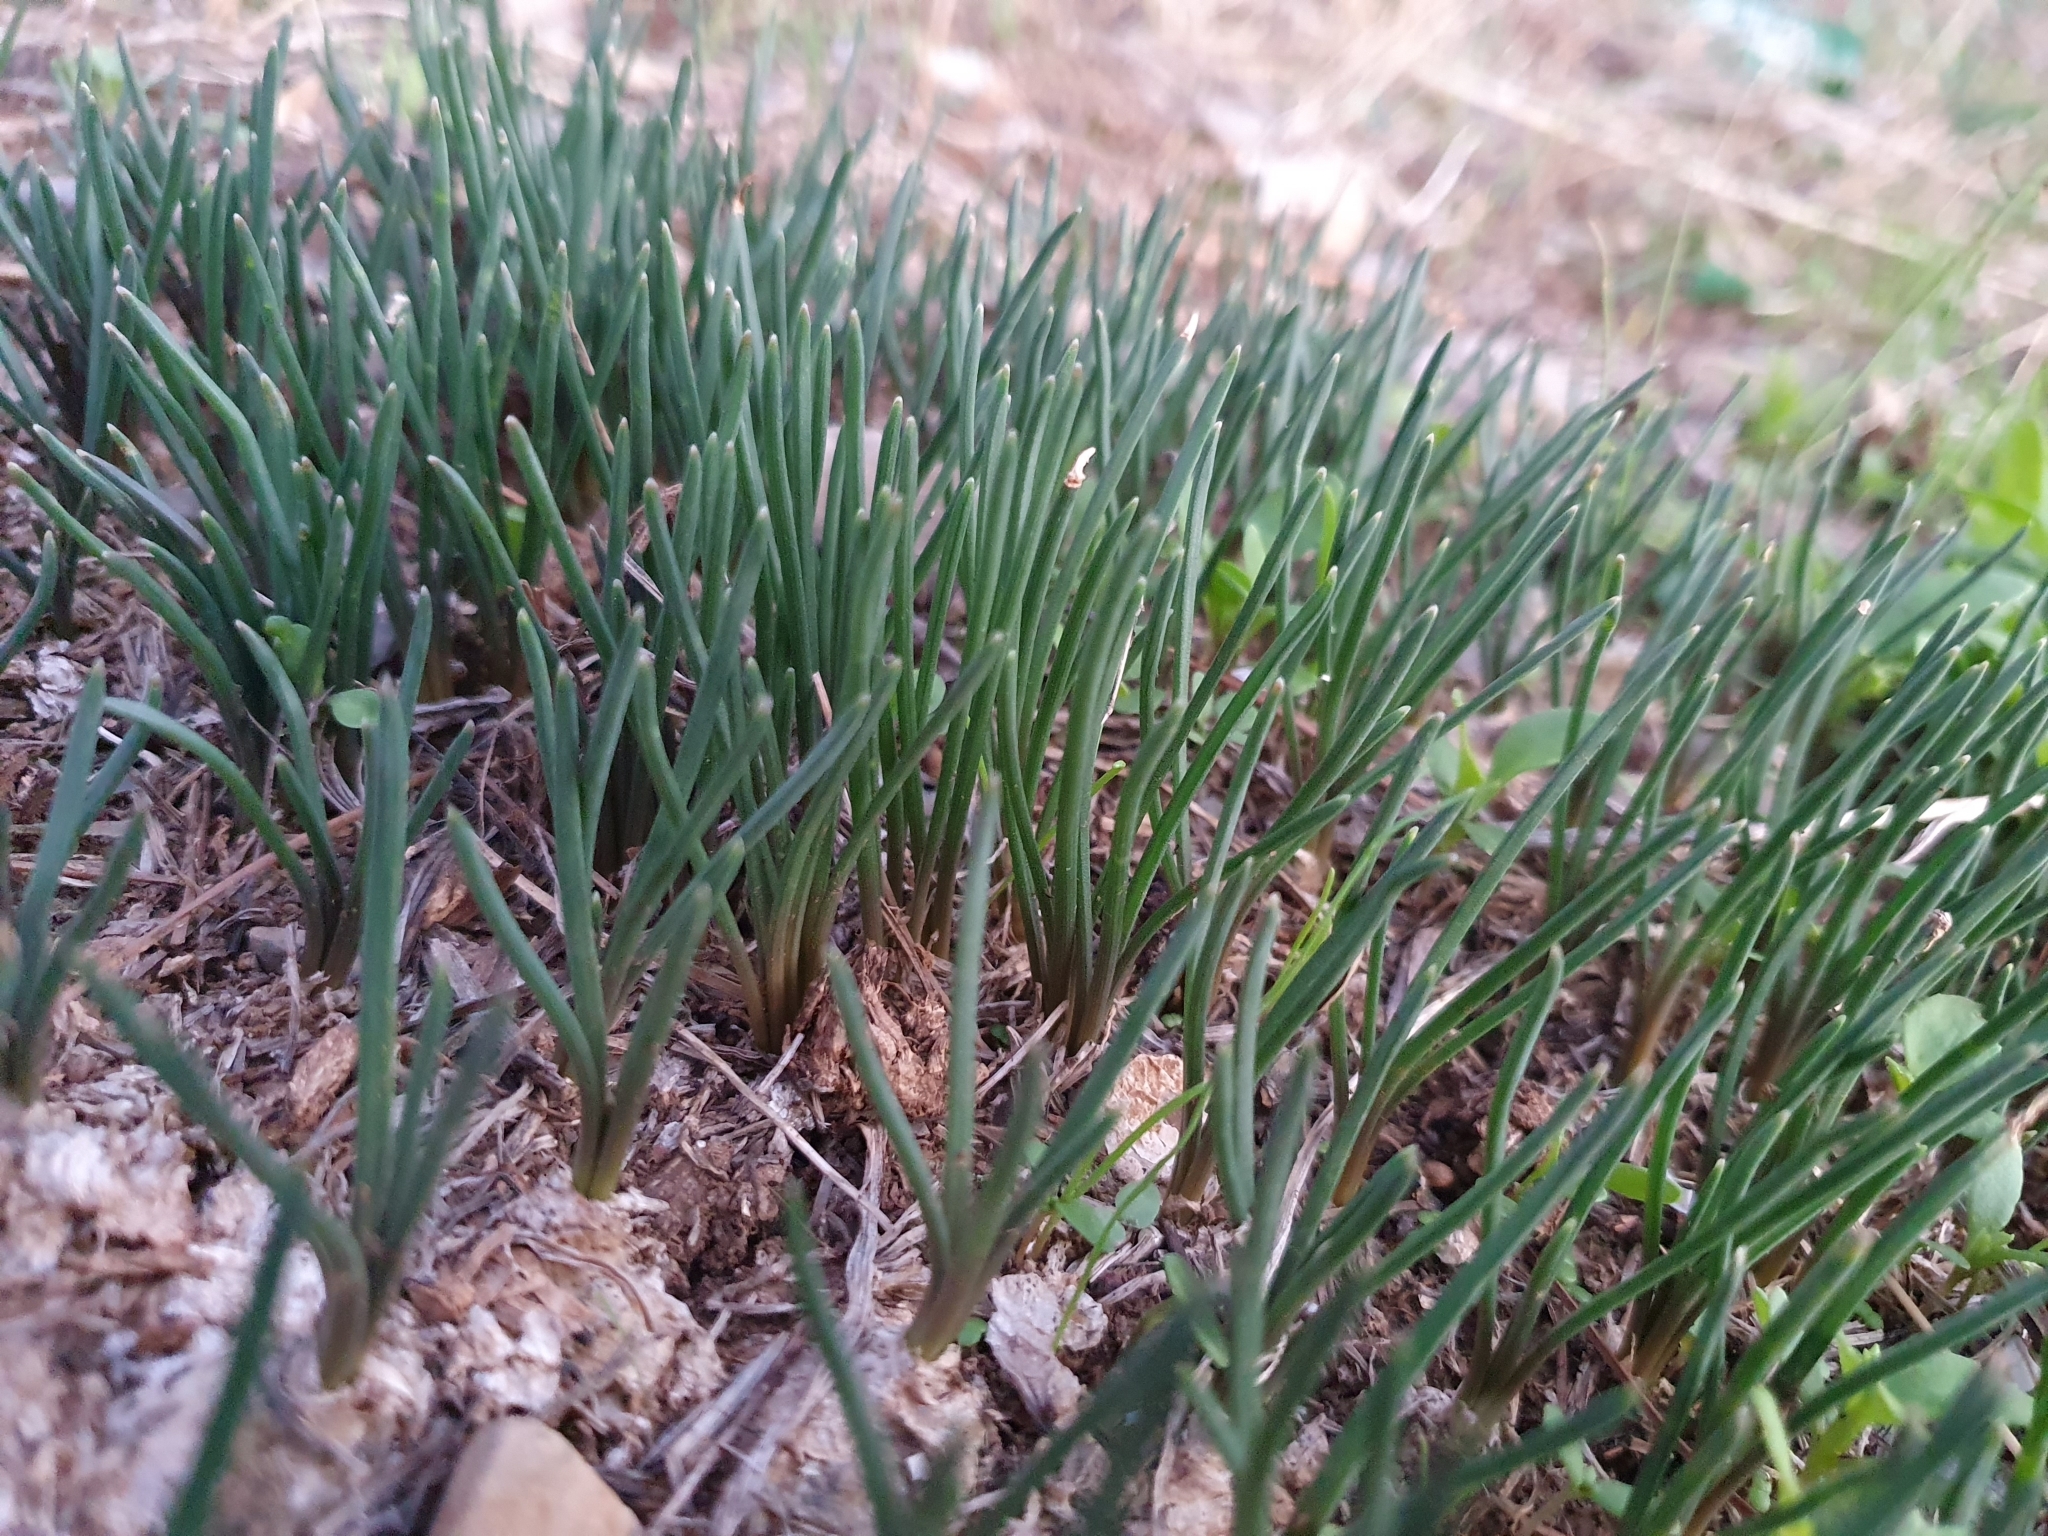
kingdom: Plantae
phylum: Tracheophyta
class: Liliopsida
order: Asparagales
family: Asparagaceae
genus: Drimia
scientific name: Drimia fugax
